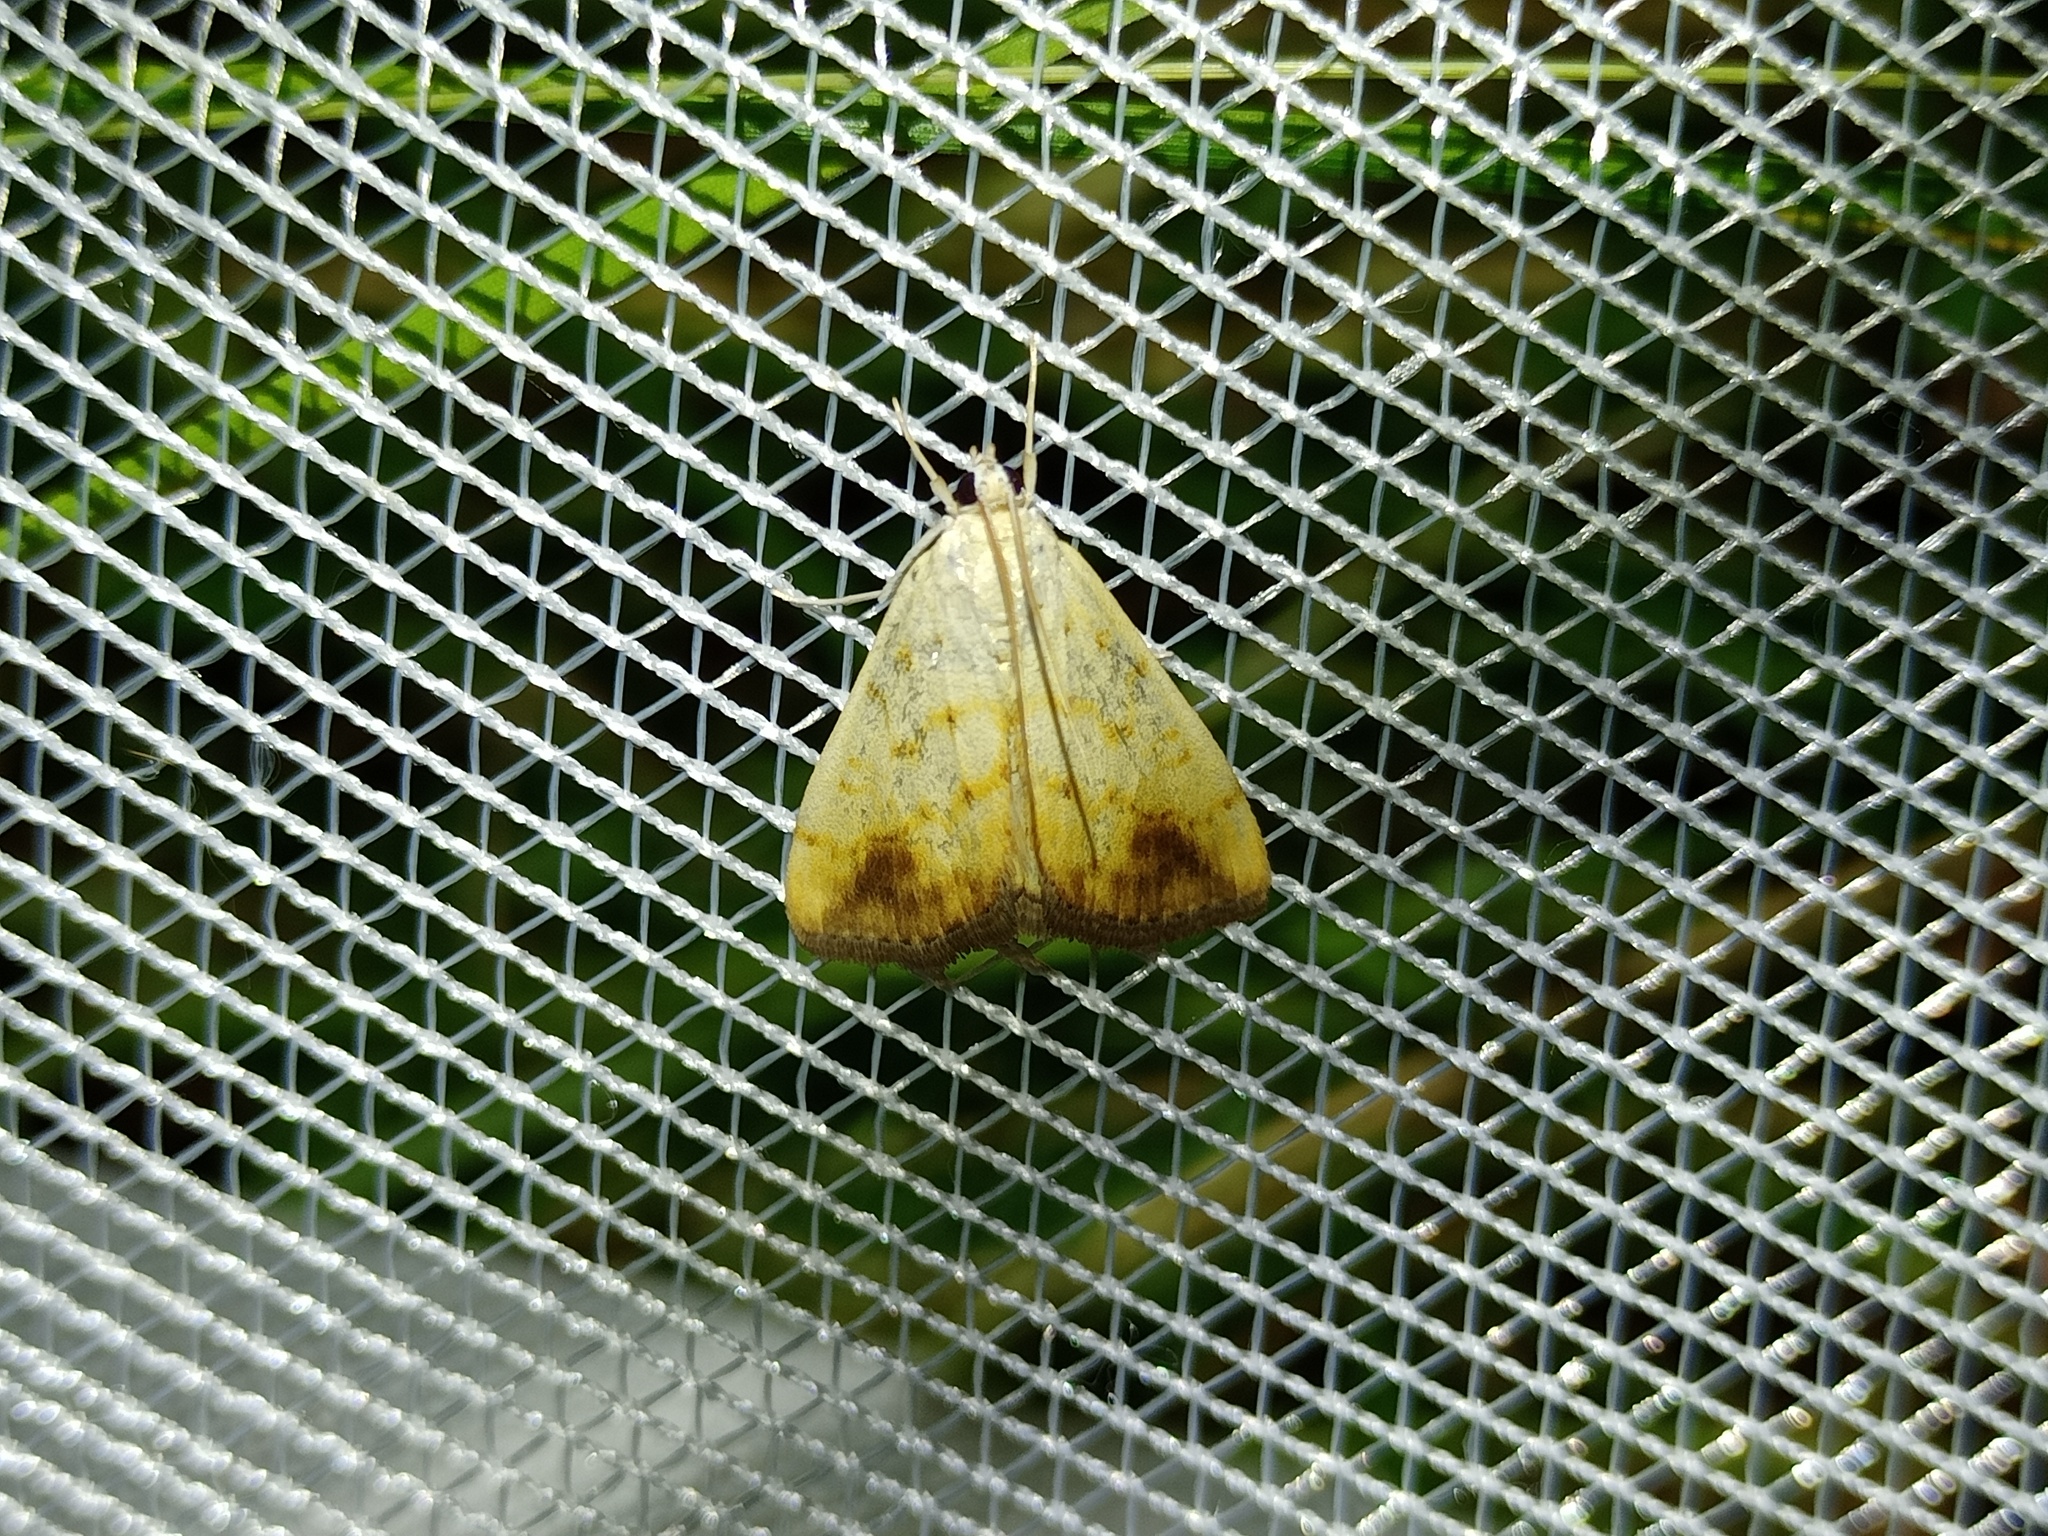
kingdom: Animalia
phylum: Arthropoda
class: Insecta
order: Lepidoptera
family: Crambidae
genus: Evergestis
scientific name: Evergestis extimalis
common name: Marbled yellow pearl
